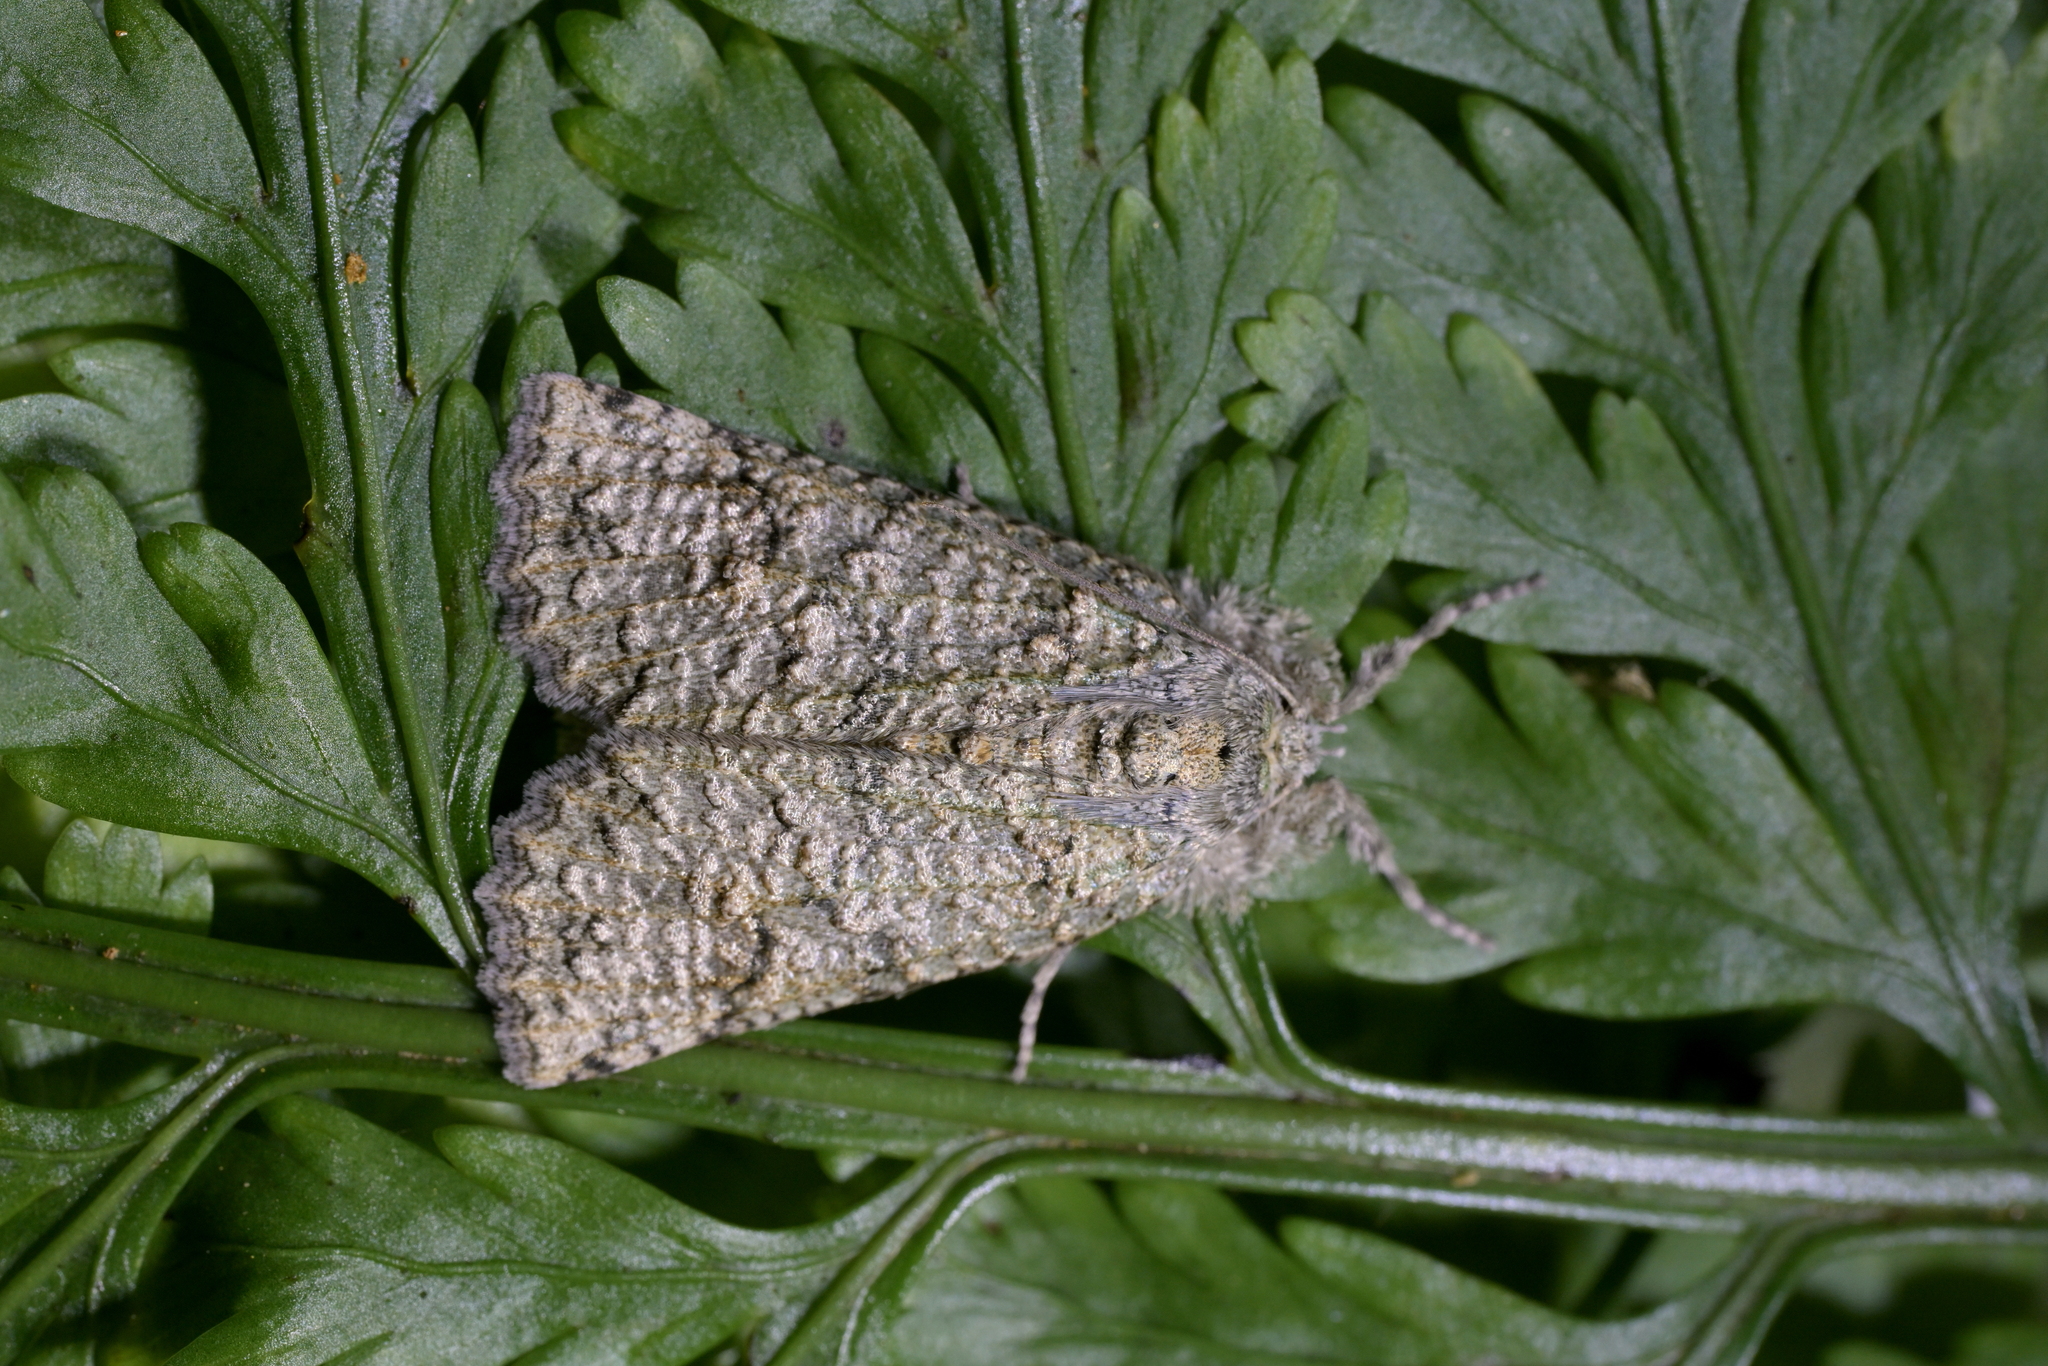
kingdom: Animalia
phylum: Arthropoda
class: Insecta
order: Lepidoptera
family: Geometridae
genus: Declana
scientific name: Declana floccosa
